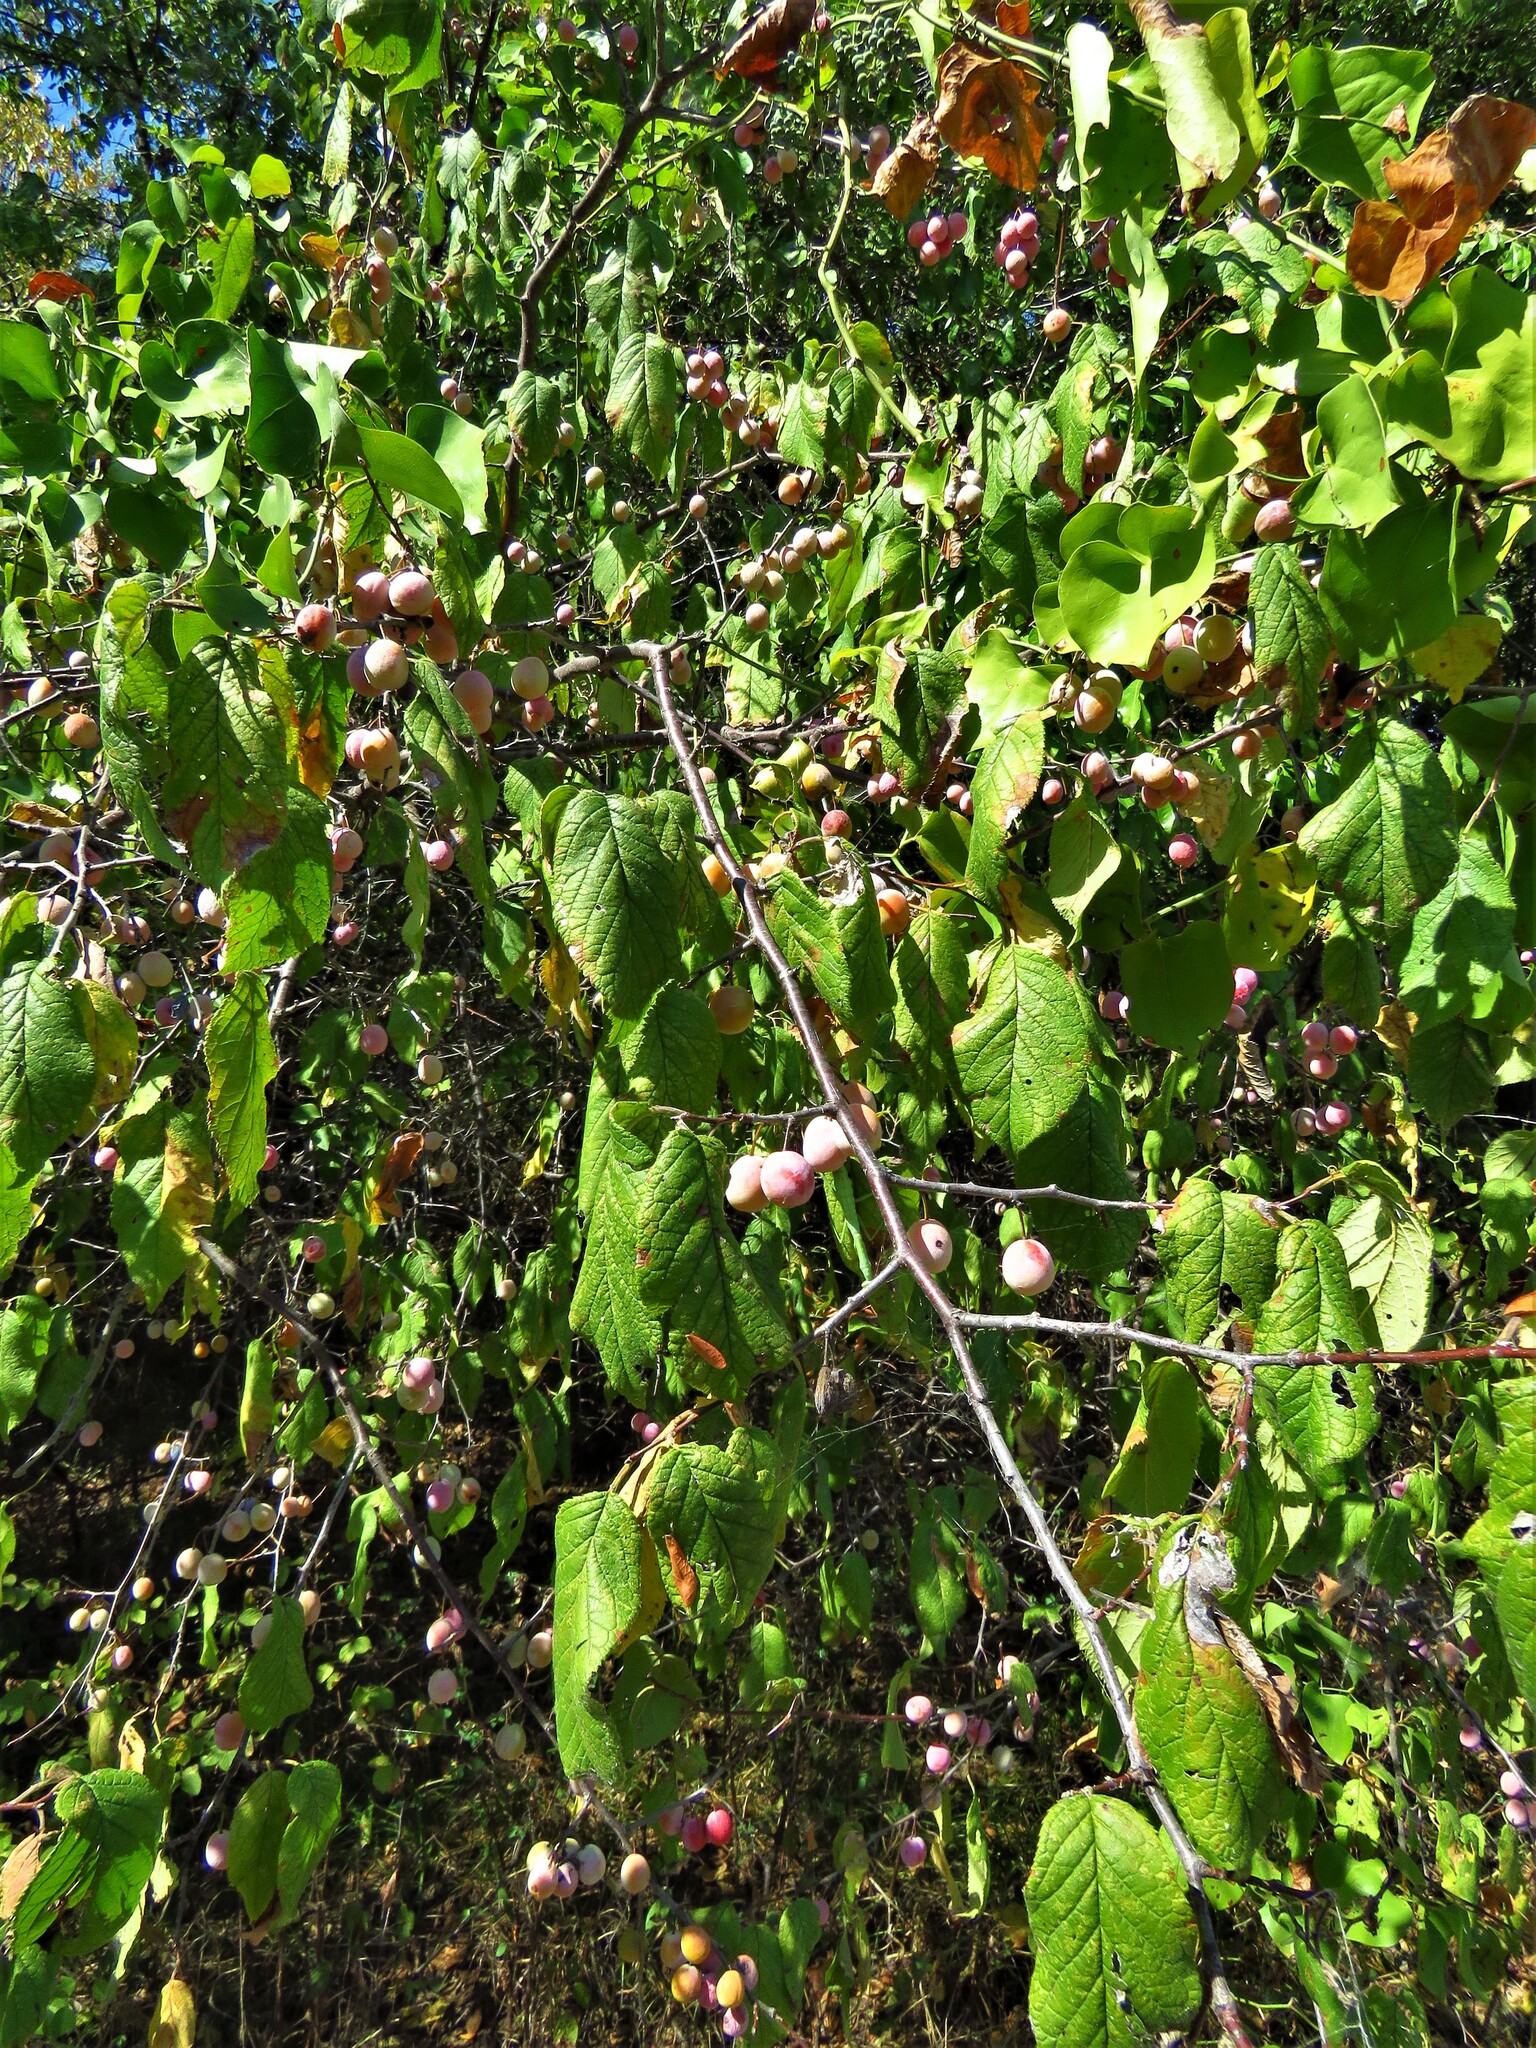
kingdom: Plantae
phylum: Tracheophyta
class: Magnoliopsida
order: Rosales
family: Rosaceae
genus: Prunus
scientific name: Prunus mexicana
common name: Mexican plum
